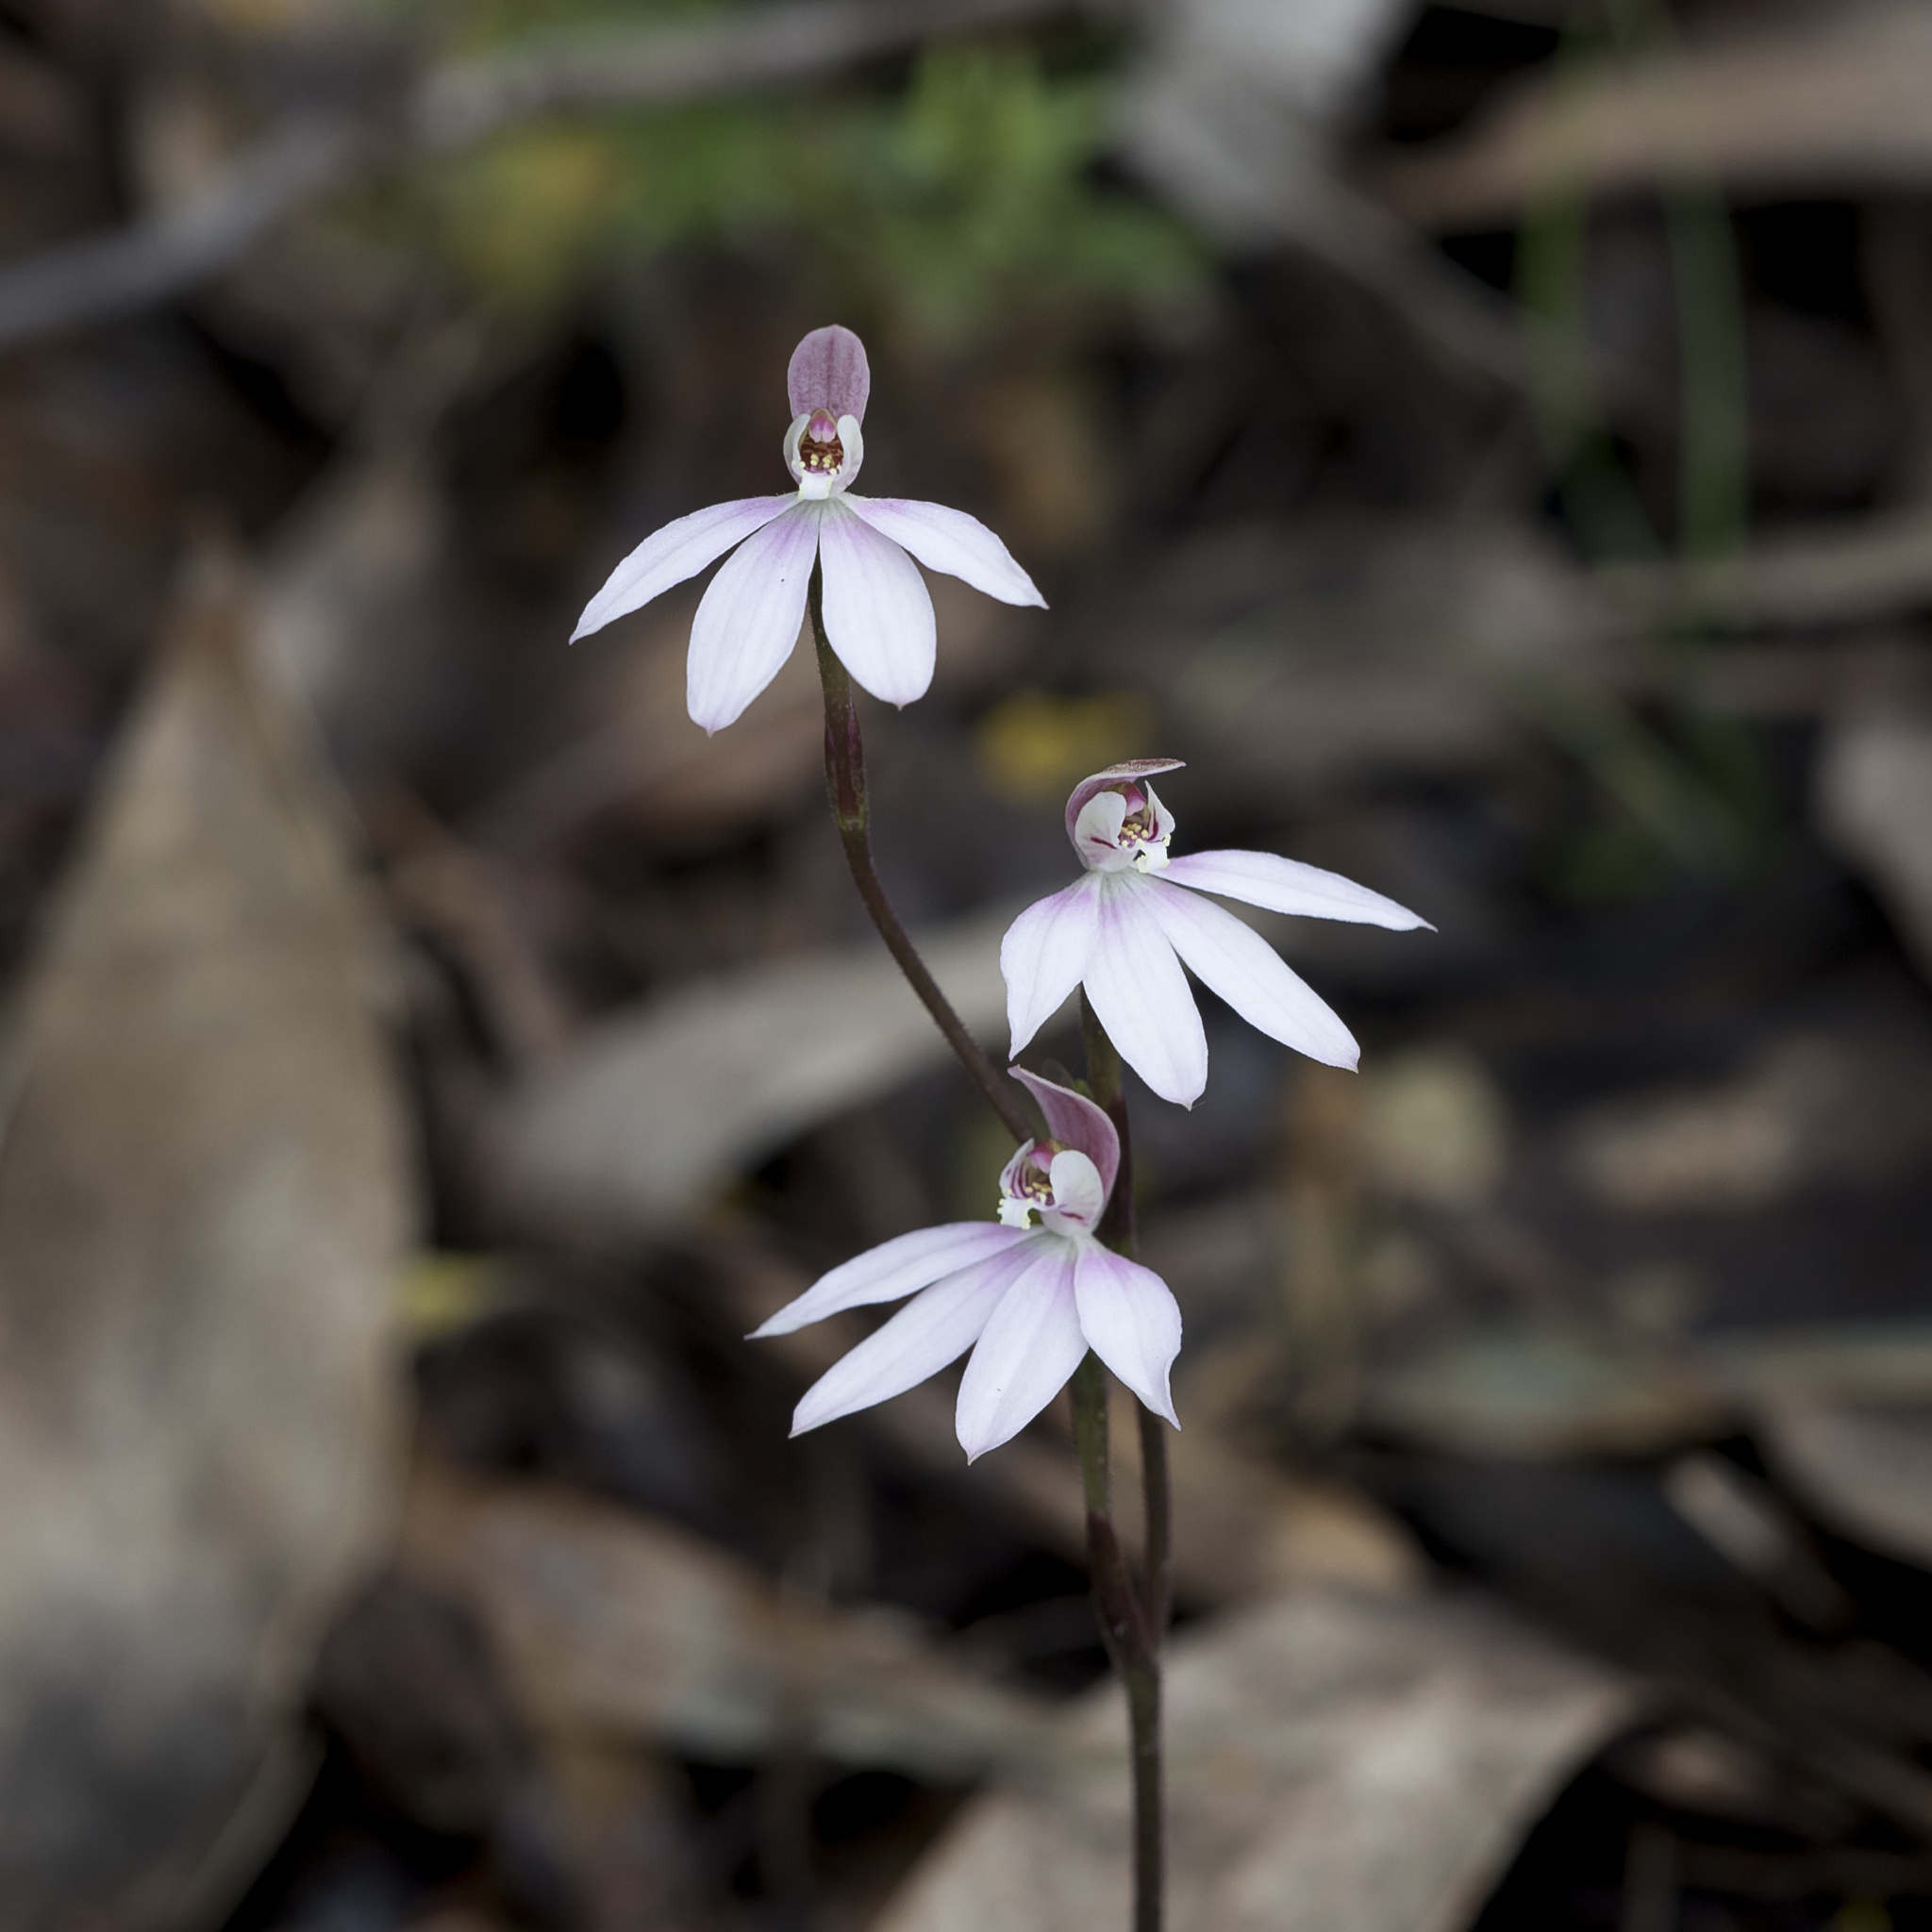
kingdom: Plantae
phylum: Tracheophyta
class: Liliopsida
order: Asparagales
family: Orchidaceae
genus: Caladenia
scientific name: Caladenia carnea
